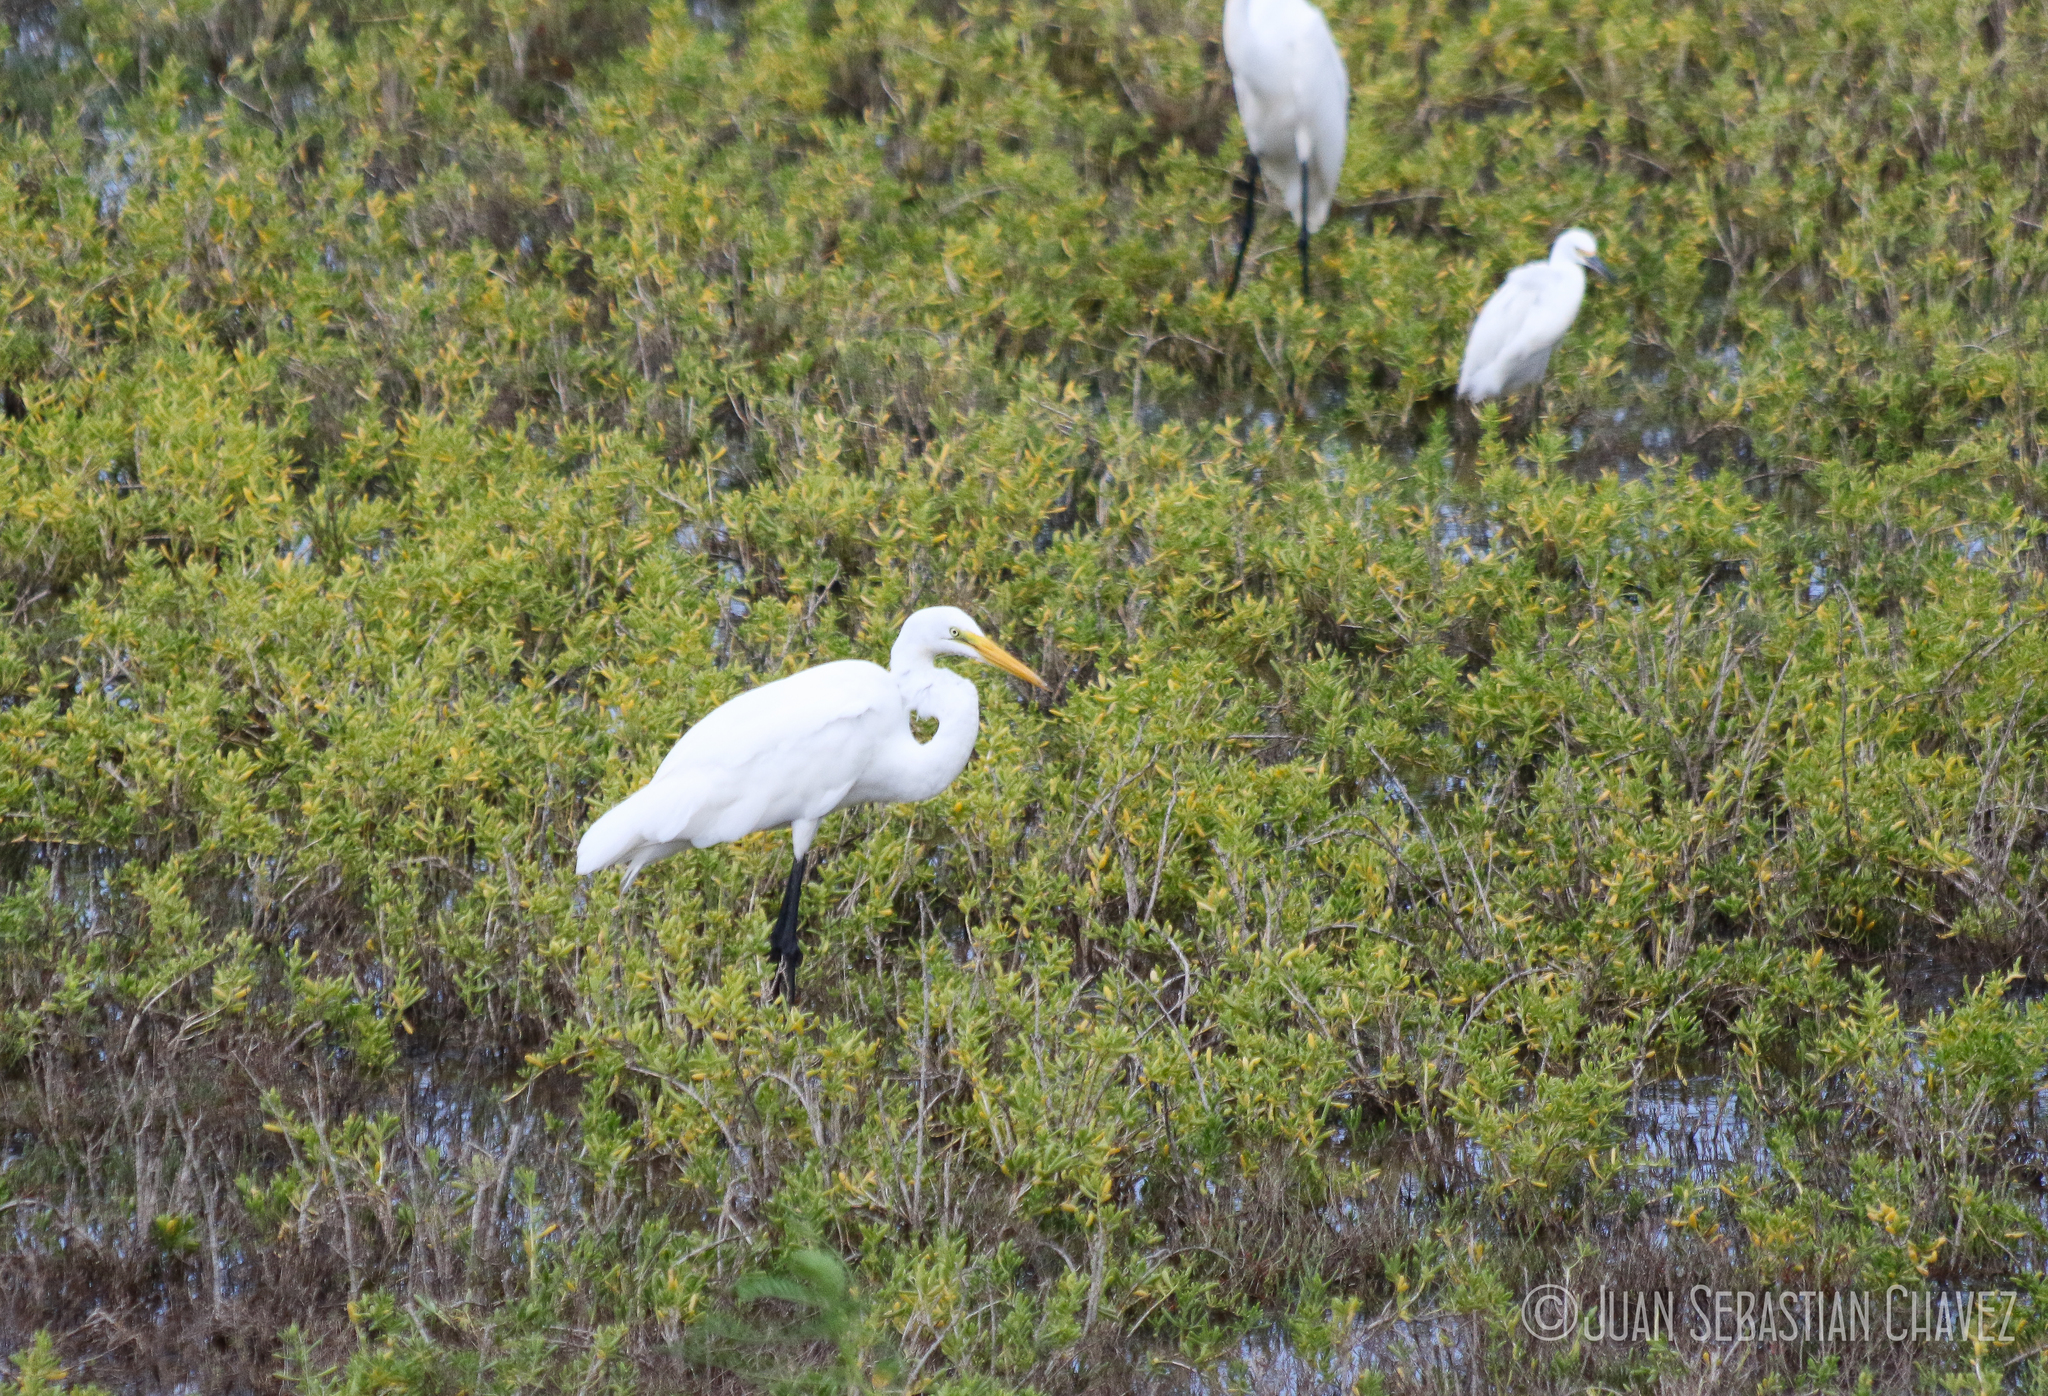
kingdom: Animalia
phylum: Chordata
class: Aves
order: Pelecaniformes
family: Ardeidae
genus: Ardea
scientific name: Ardea alba
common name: Great egret
